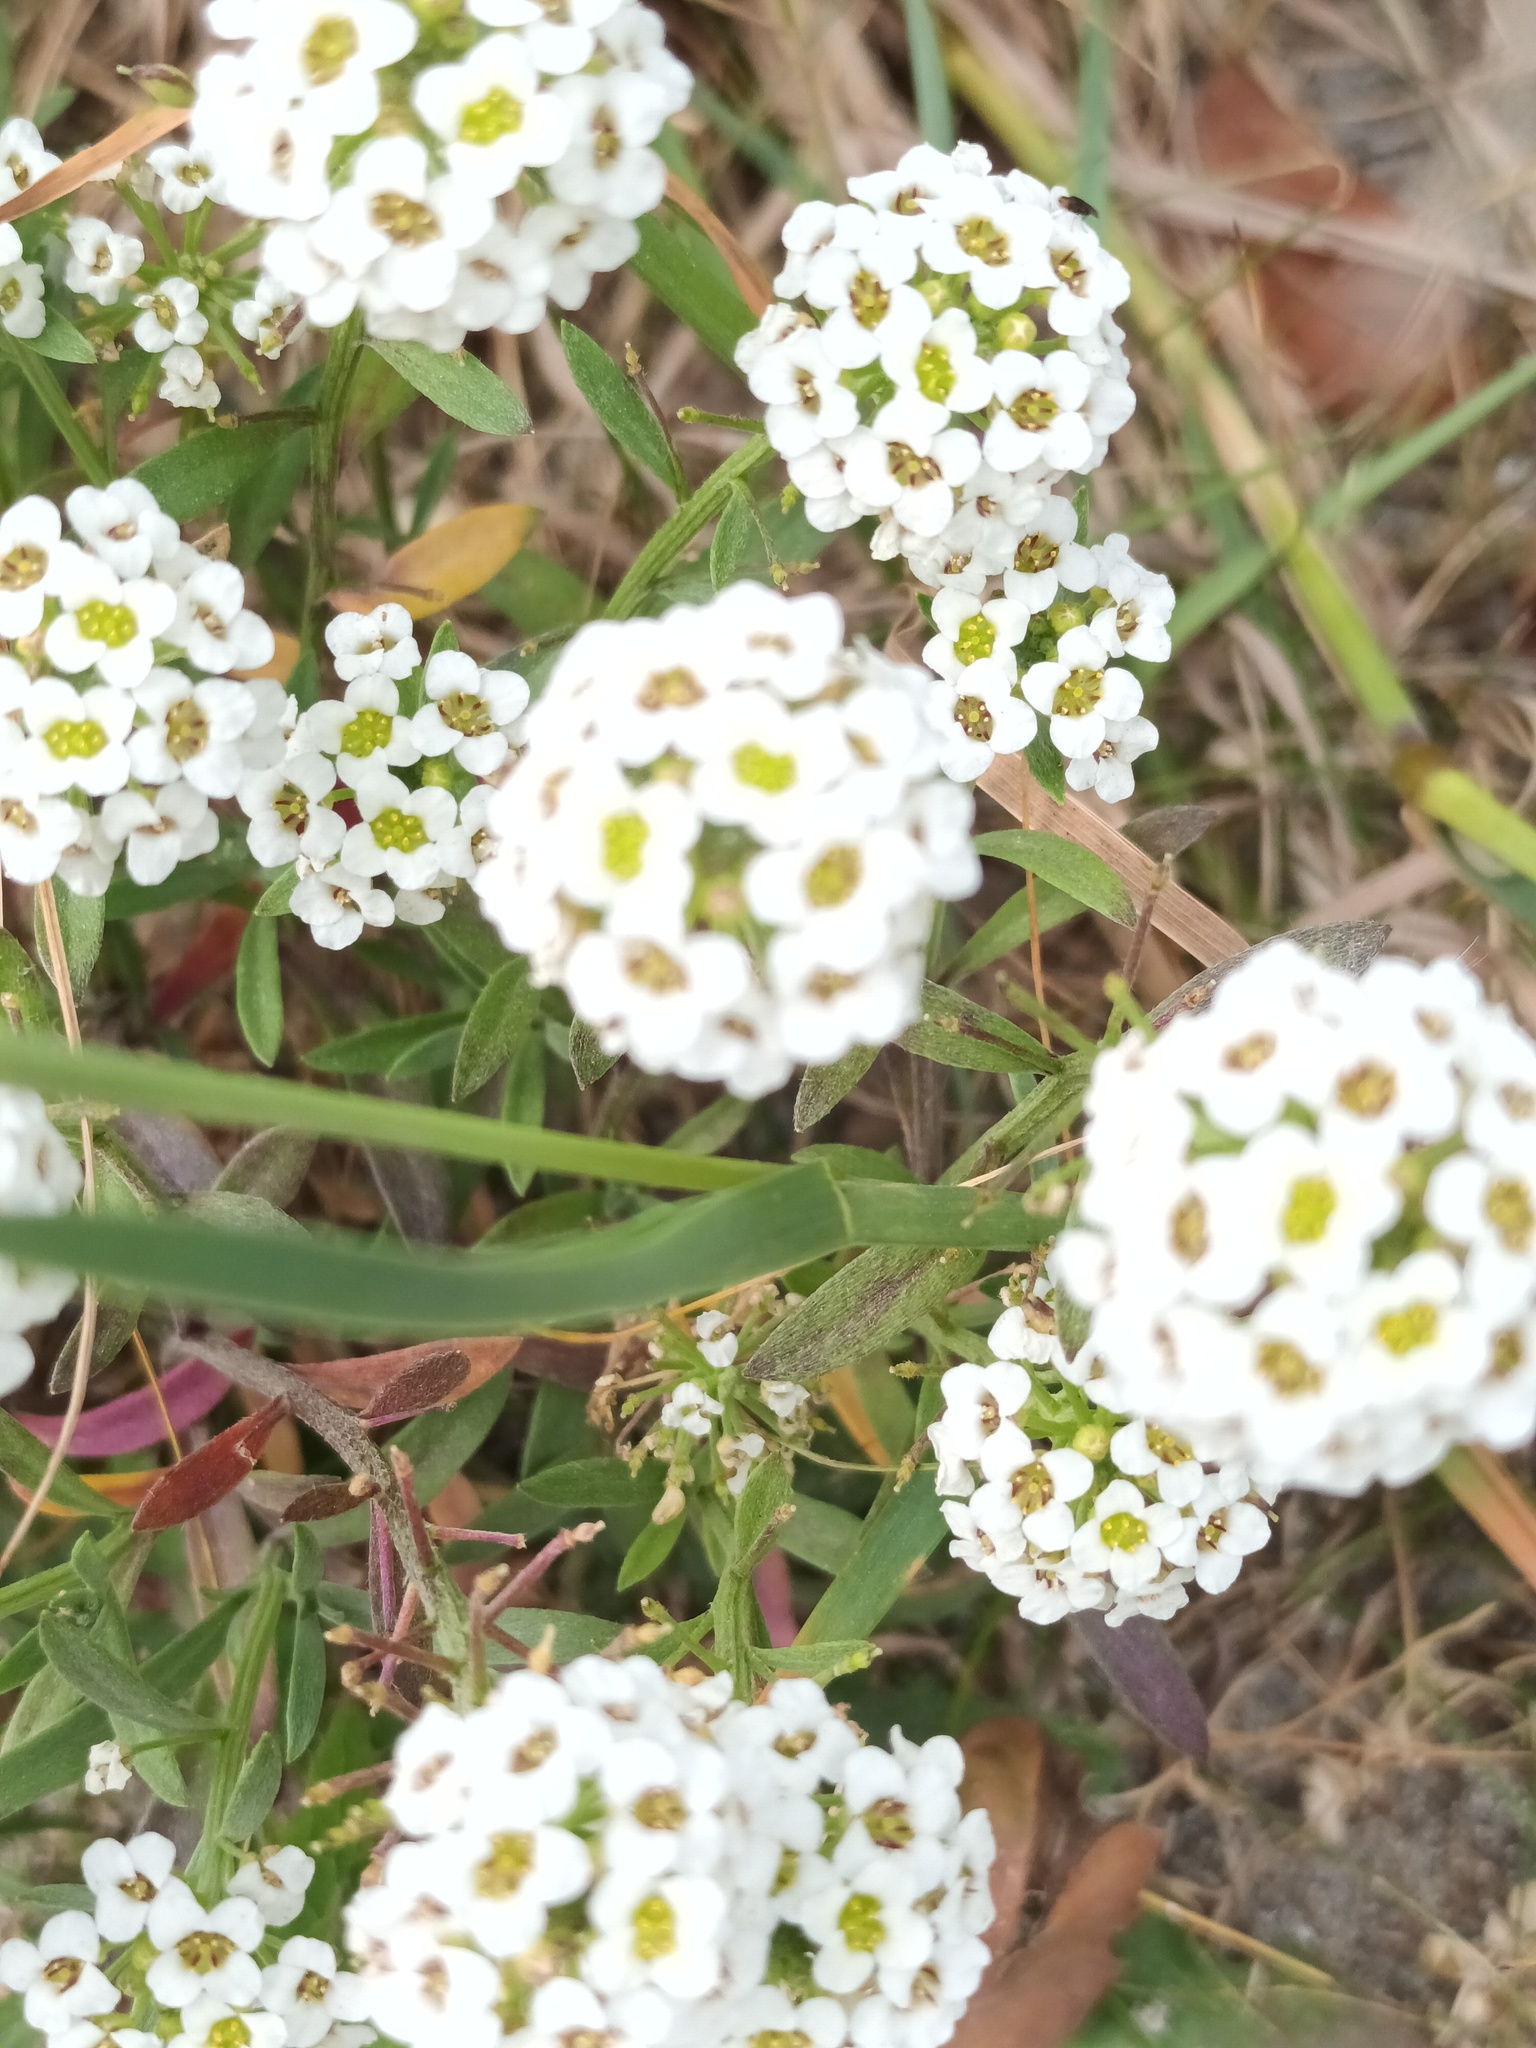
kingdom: Plantae
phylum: Tracheophyta
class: Magnoliopsida
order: Brassicales
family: Brassicaceae
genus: Lobularia
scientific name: Lobularia maritima
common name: Sweet alison
